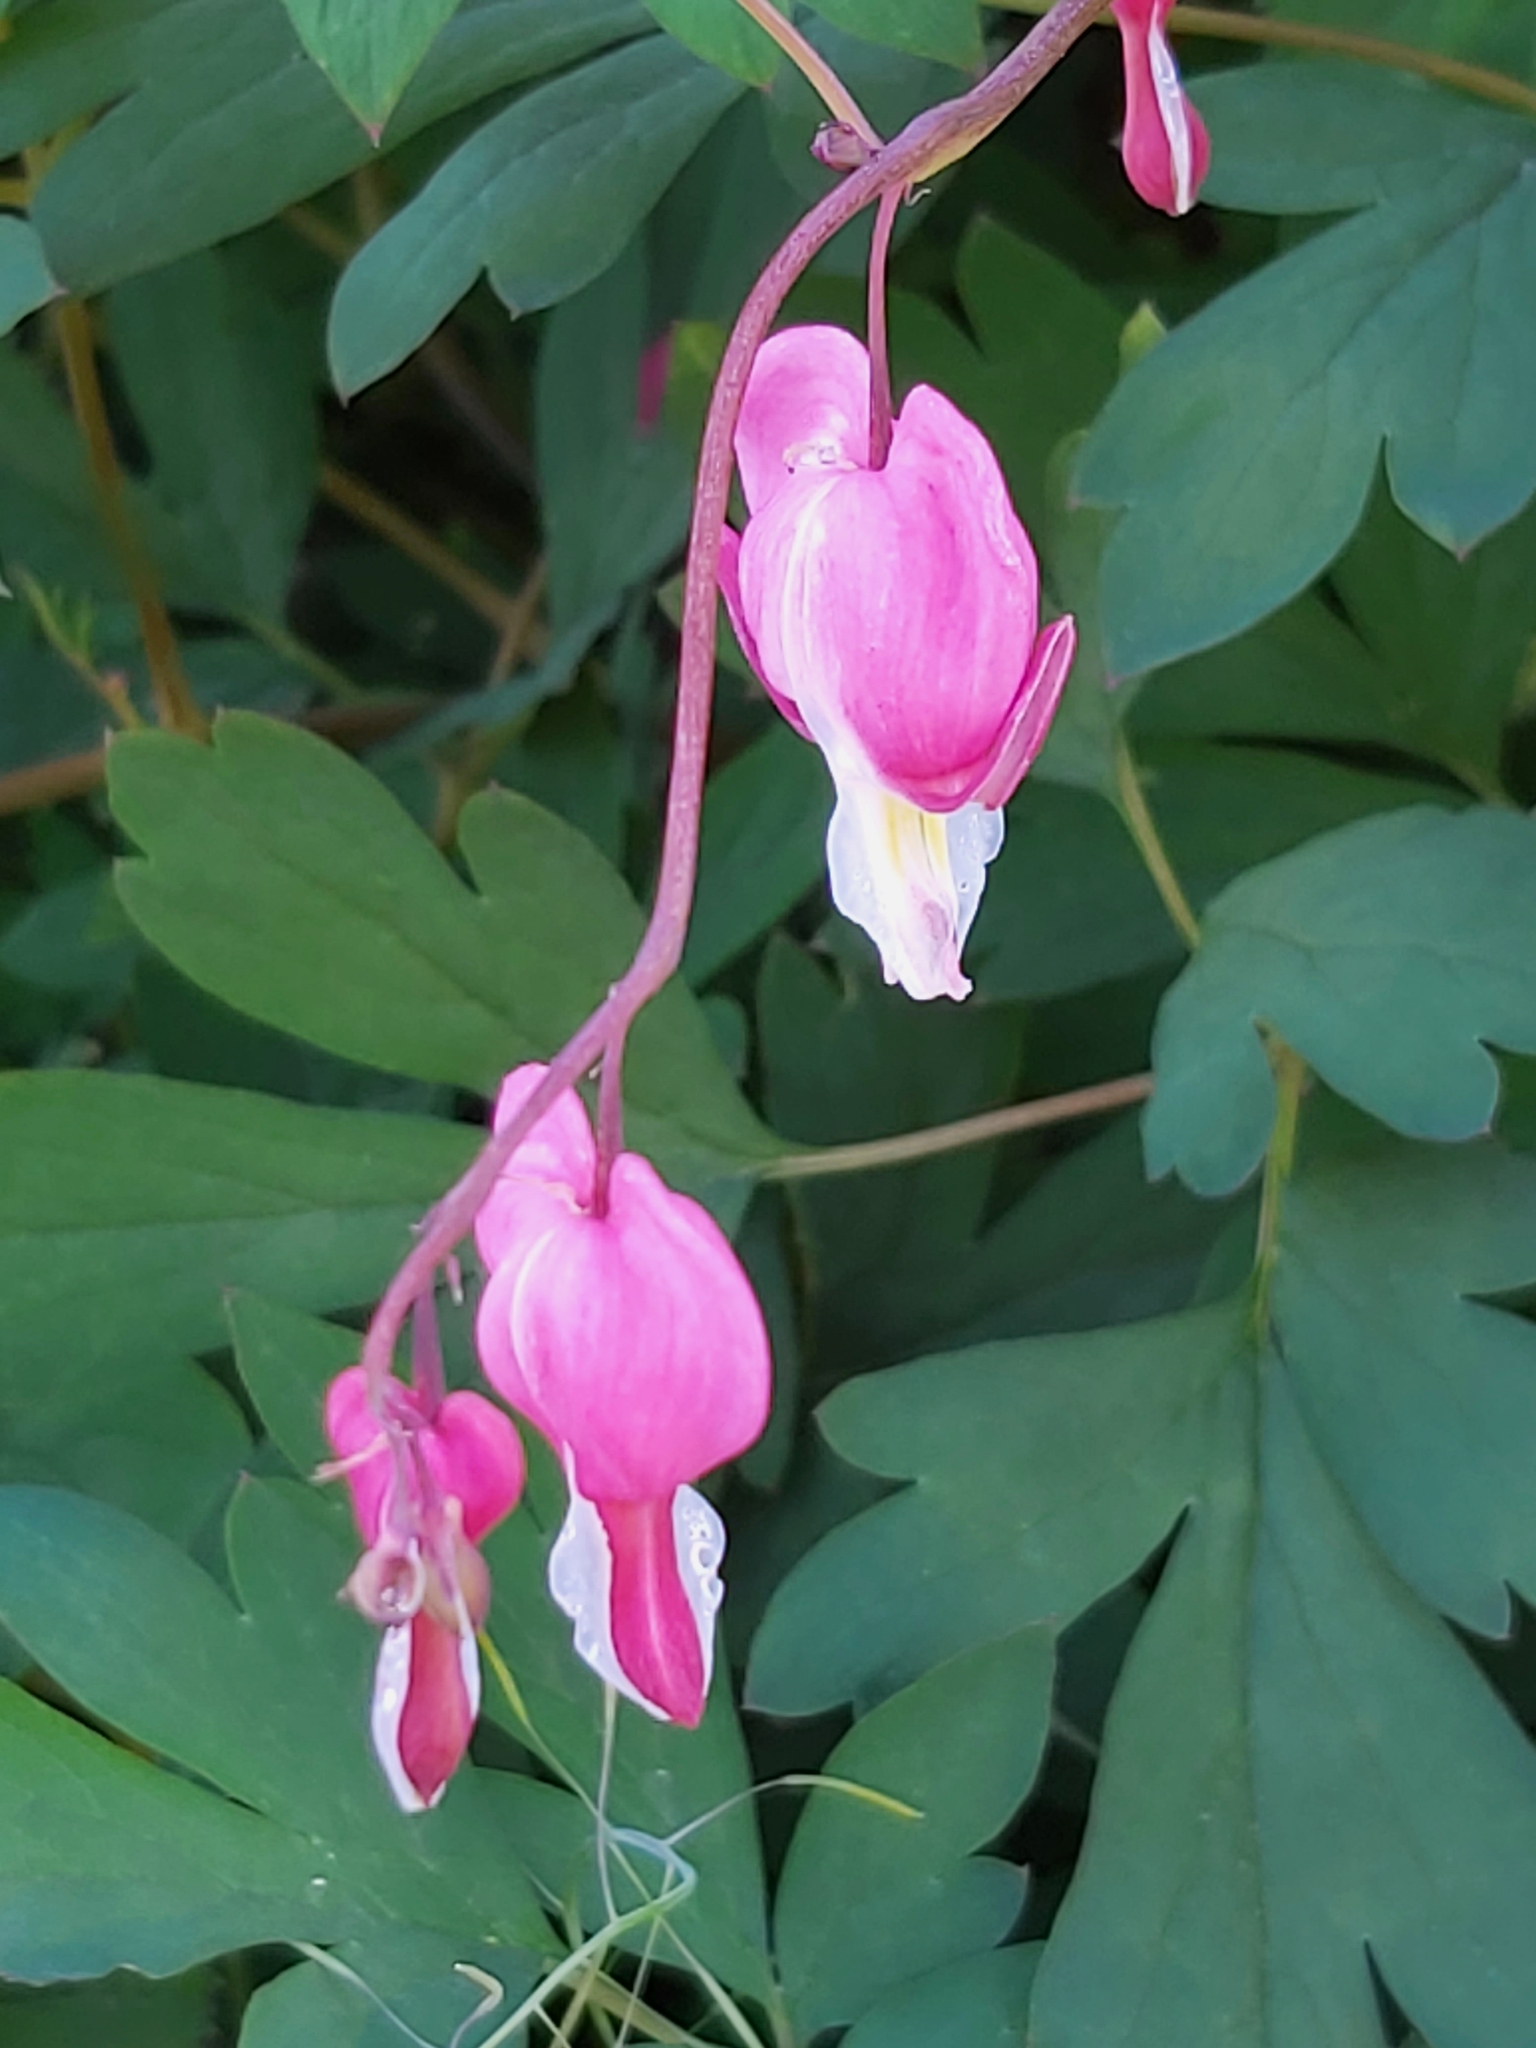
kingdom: Plantae
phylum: Tracheophyta
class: Magnoliopsida
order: Ranunculales
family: Papaveraceae
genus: Lamprocapnos
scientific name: Lamprocapnos spectabilis
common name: Asian bleeding-heart
